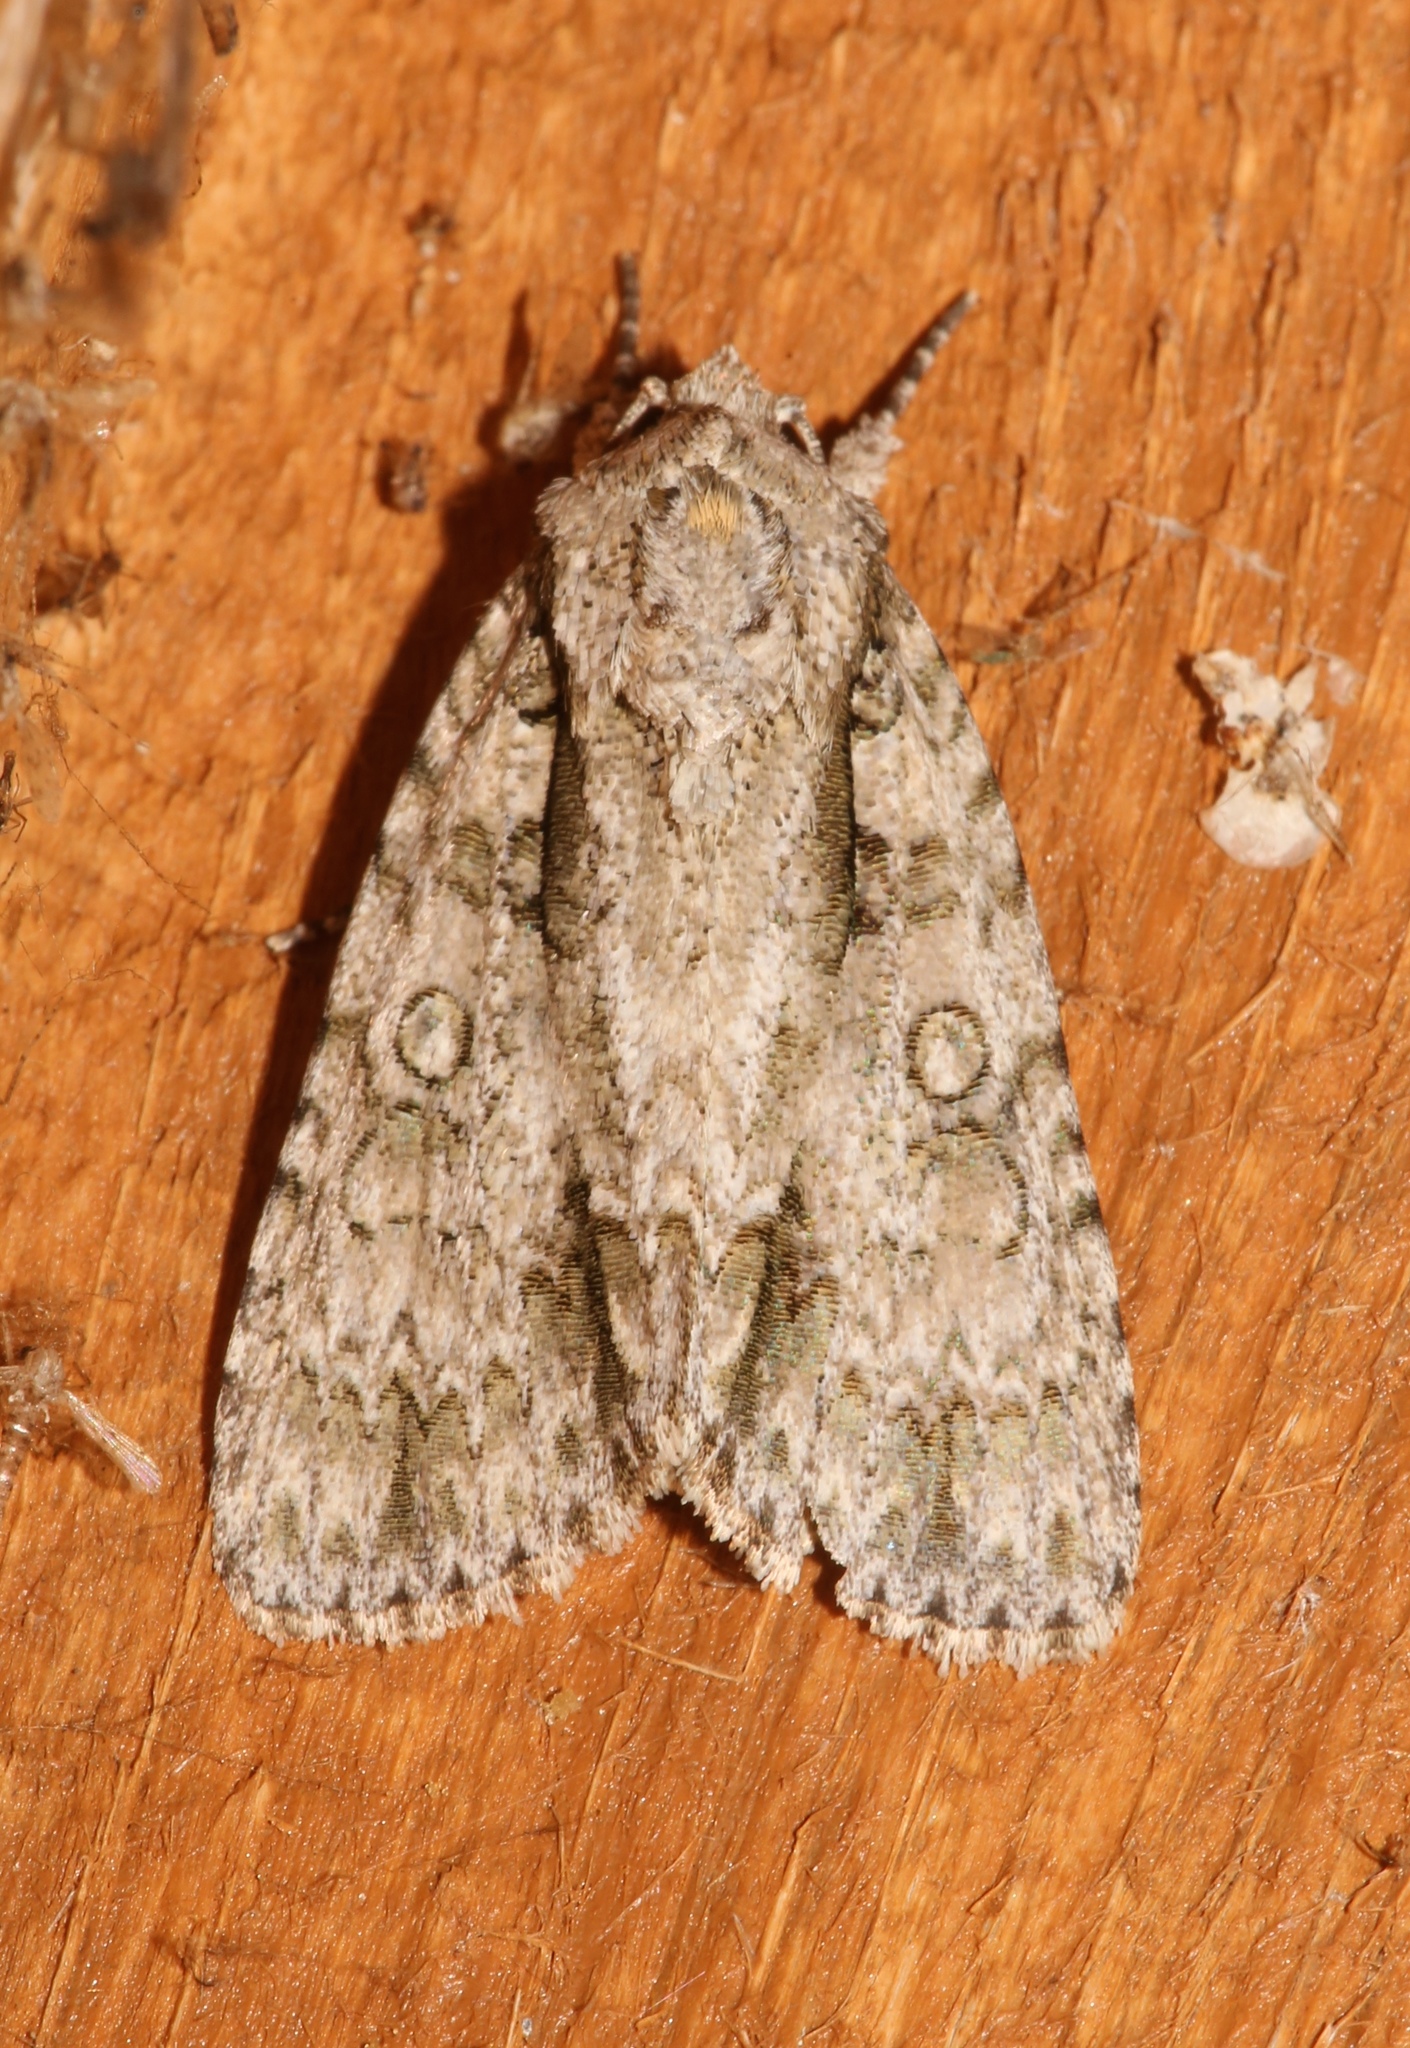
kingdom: Animalia
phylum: Arthropoda
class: Insecta
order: Lepidoptera
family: Noctuidae
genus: Acronicta
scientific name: Acronicta clarescens
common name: Clear dagger
